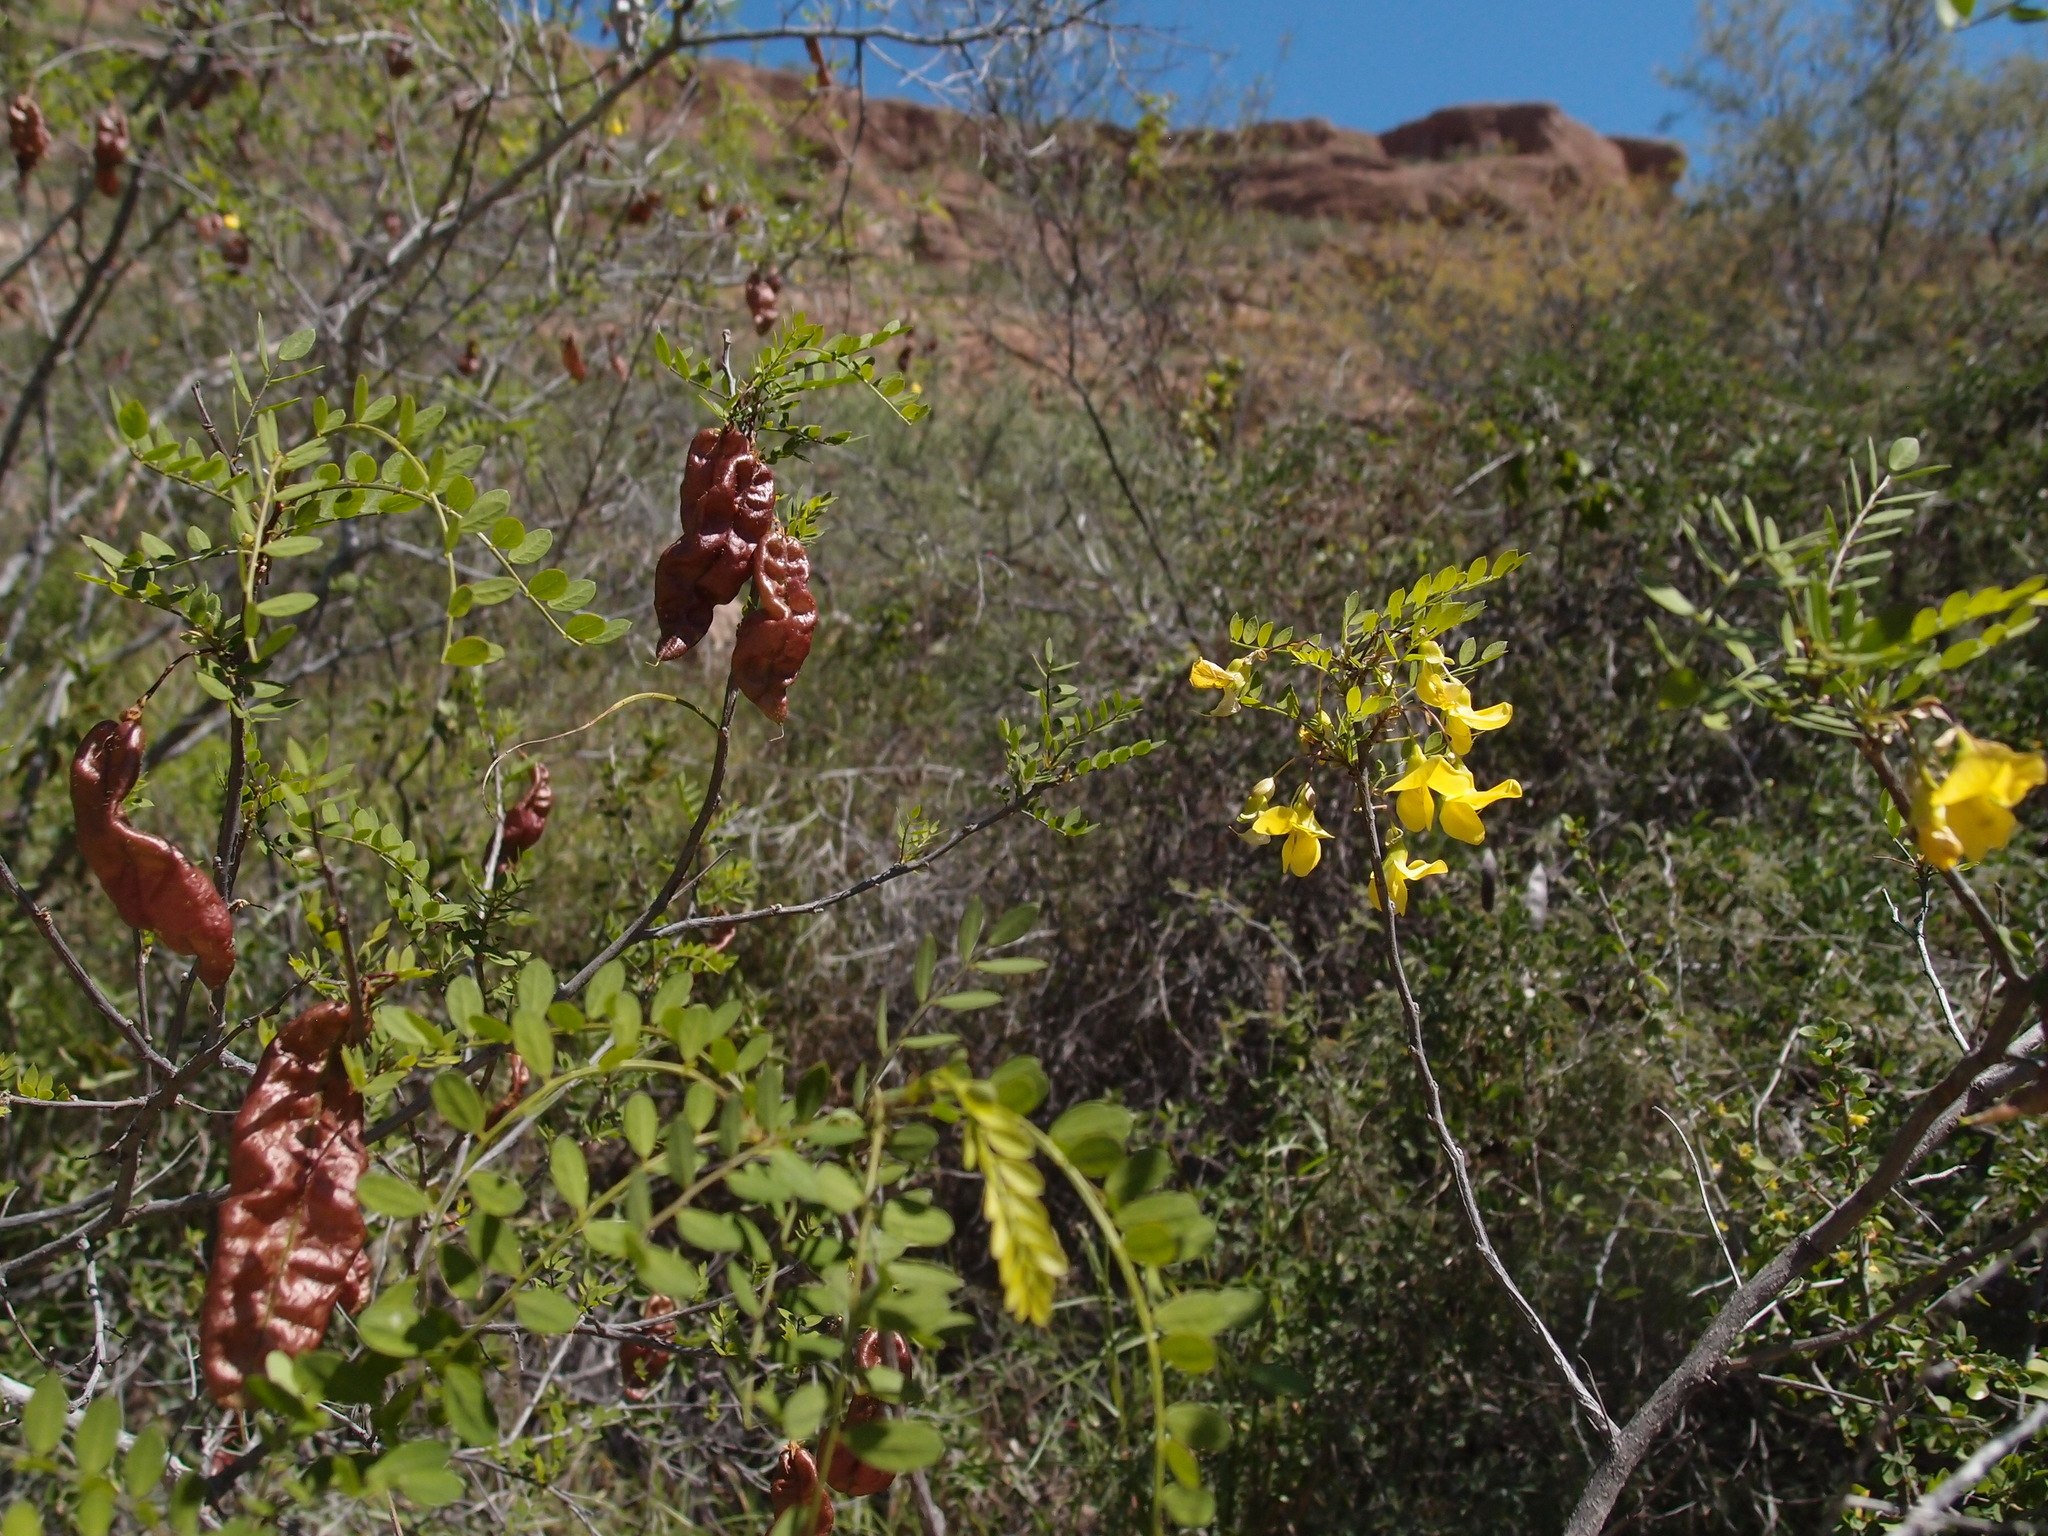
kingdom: Plantae
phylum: Tracheophyta
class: Magnoliopsida
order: Fabales
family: Fabaceae
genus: Diphysa
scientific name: Diphysa occidentalis
